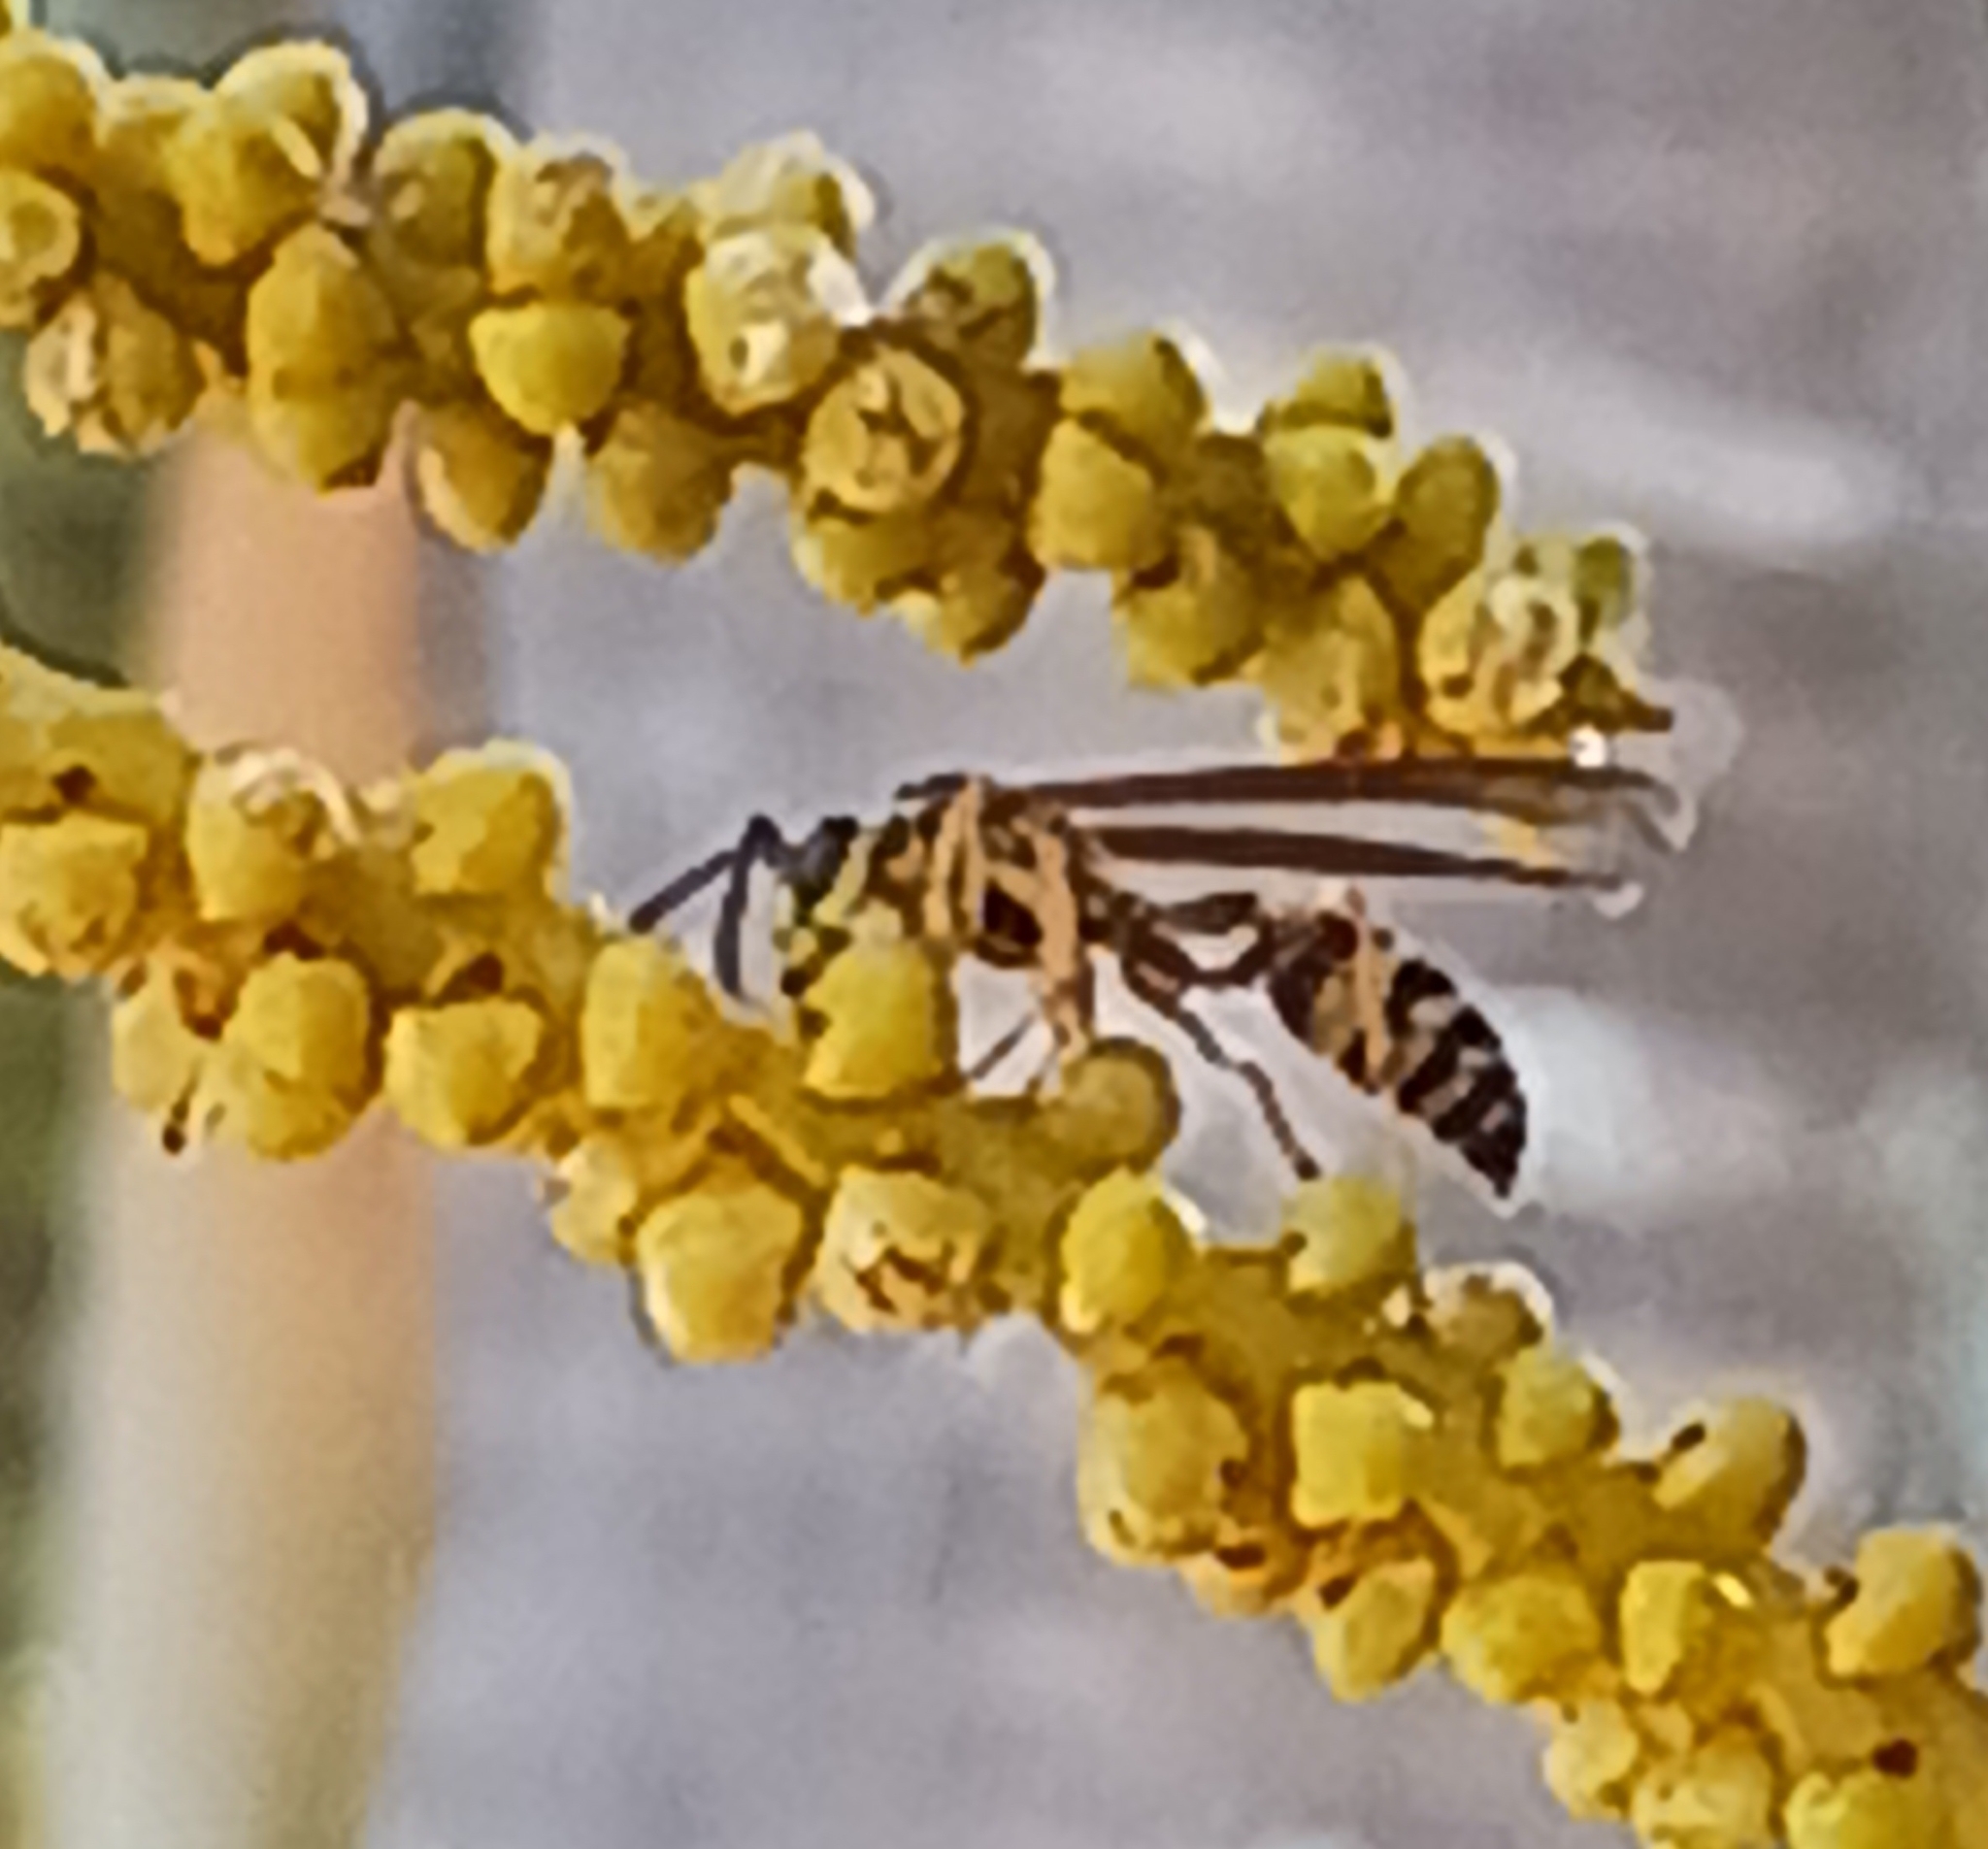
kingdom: Animalia
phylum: Arthropoda
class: Insecta
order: Hymenoptera
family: Vespidae
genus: Agelaia
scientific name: Agelaia multipicta
